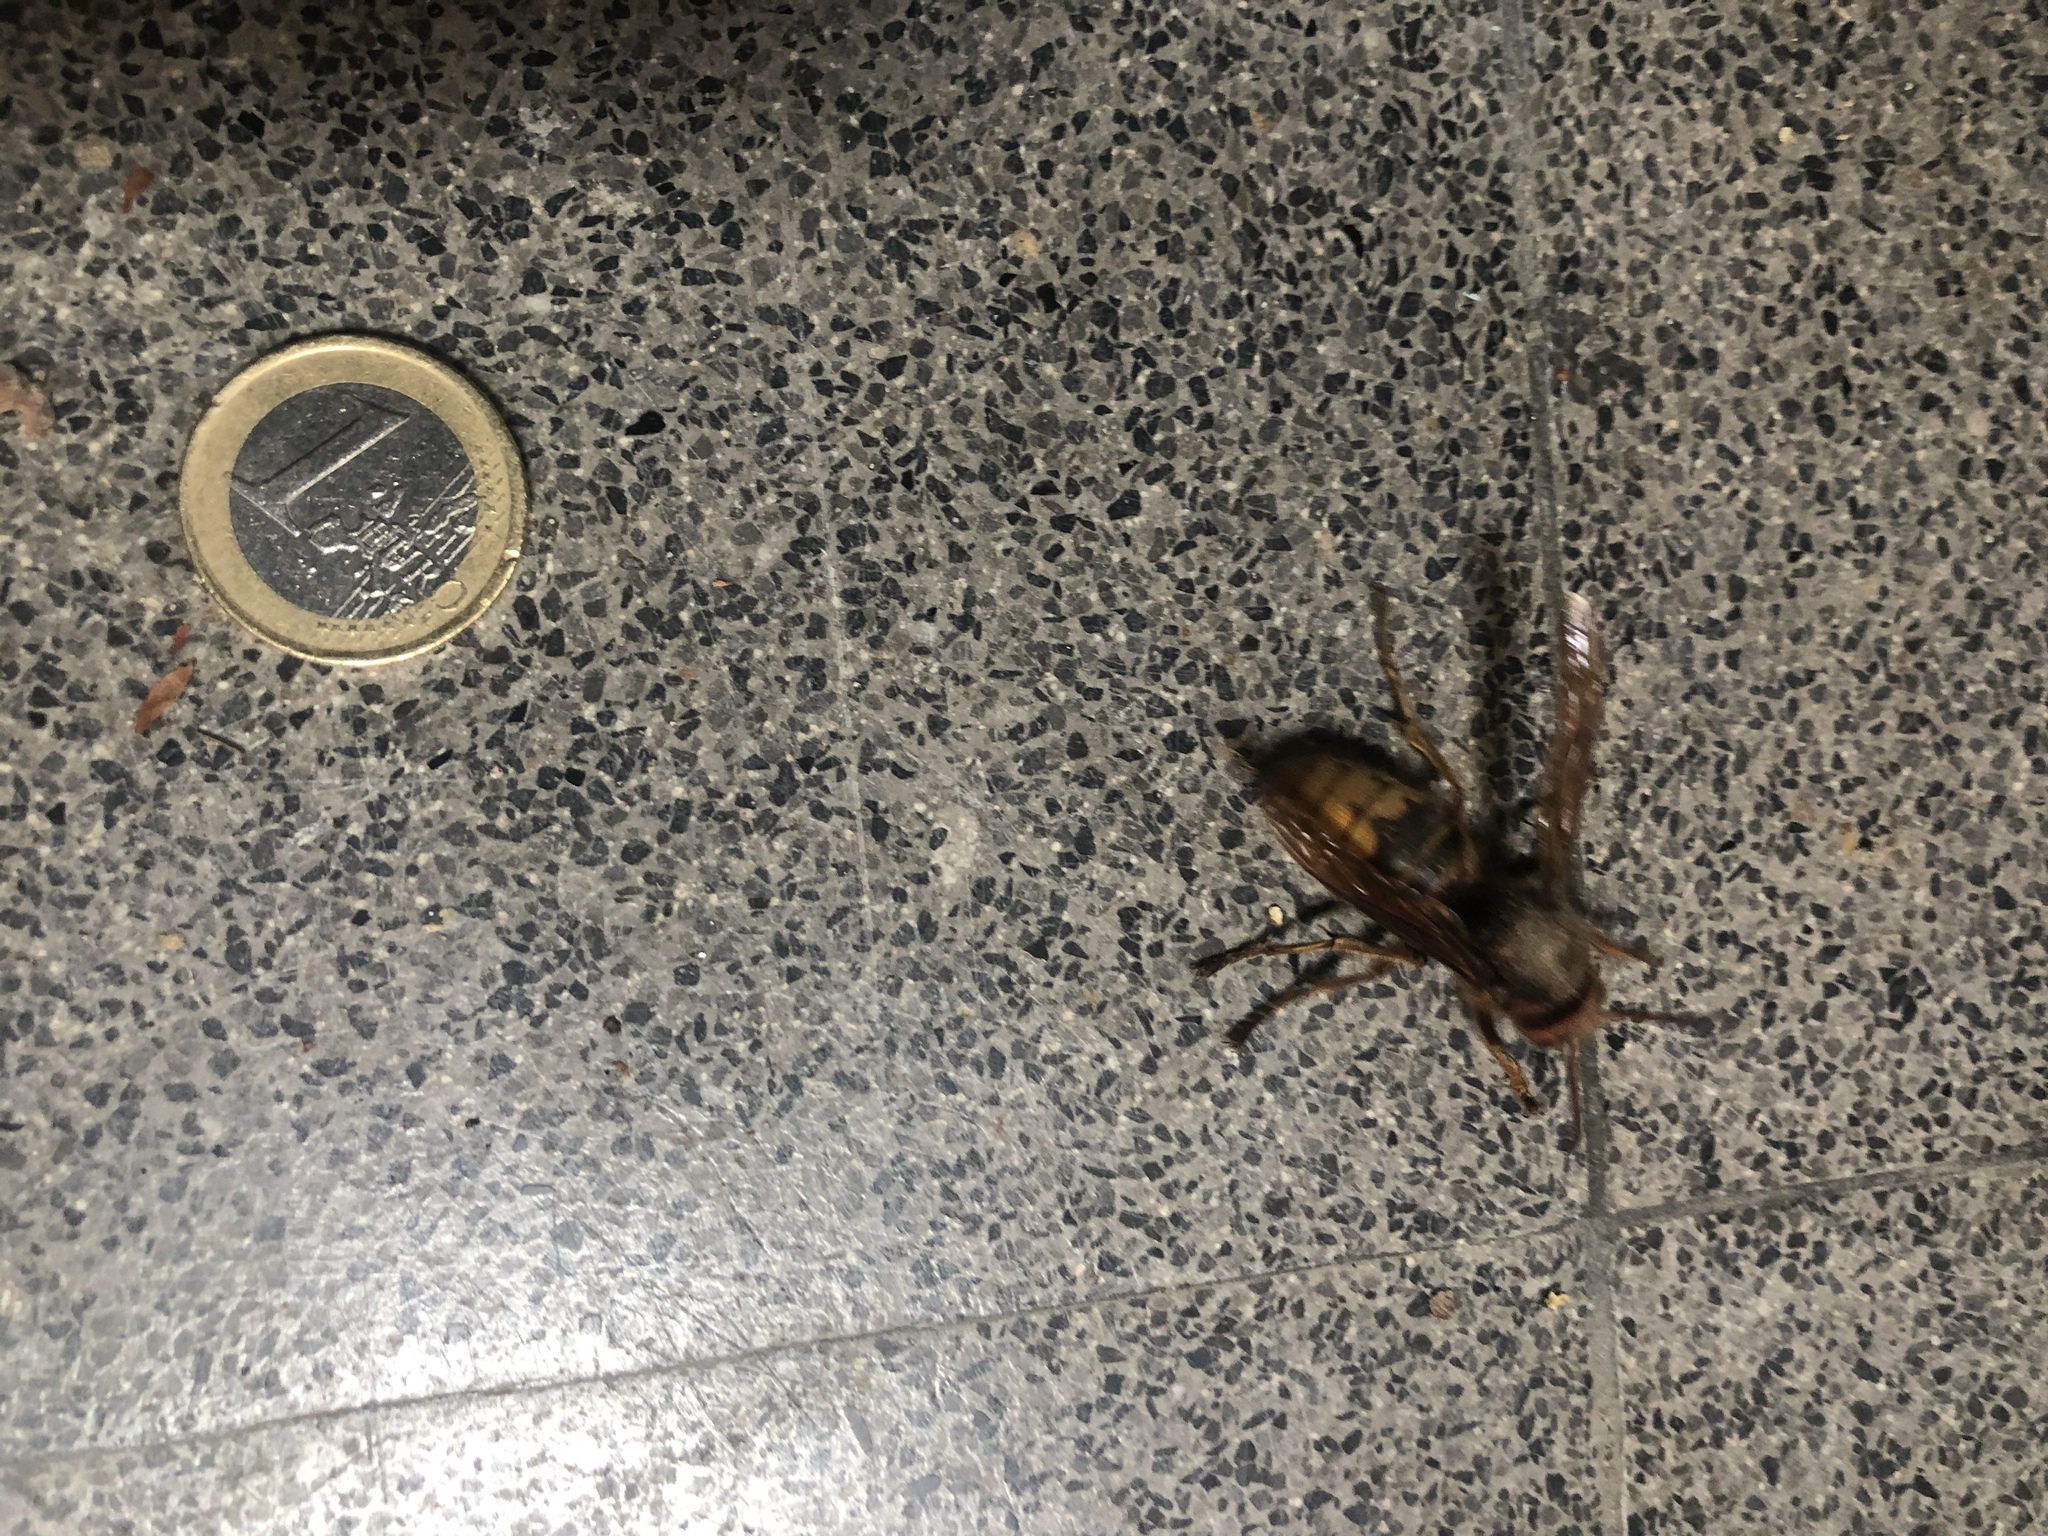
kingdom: Animalia
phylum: Arthropoda
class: Insecta
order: Hymenoptera
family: Vespidae
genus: Vespa
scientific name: Vespa crabro
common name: Hornet
